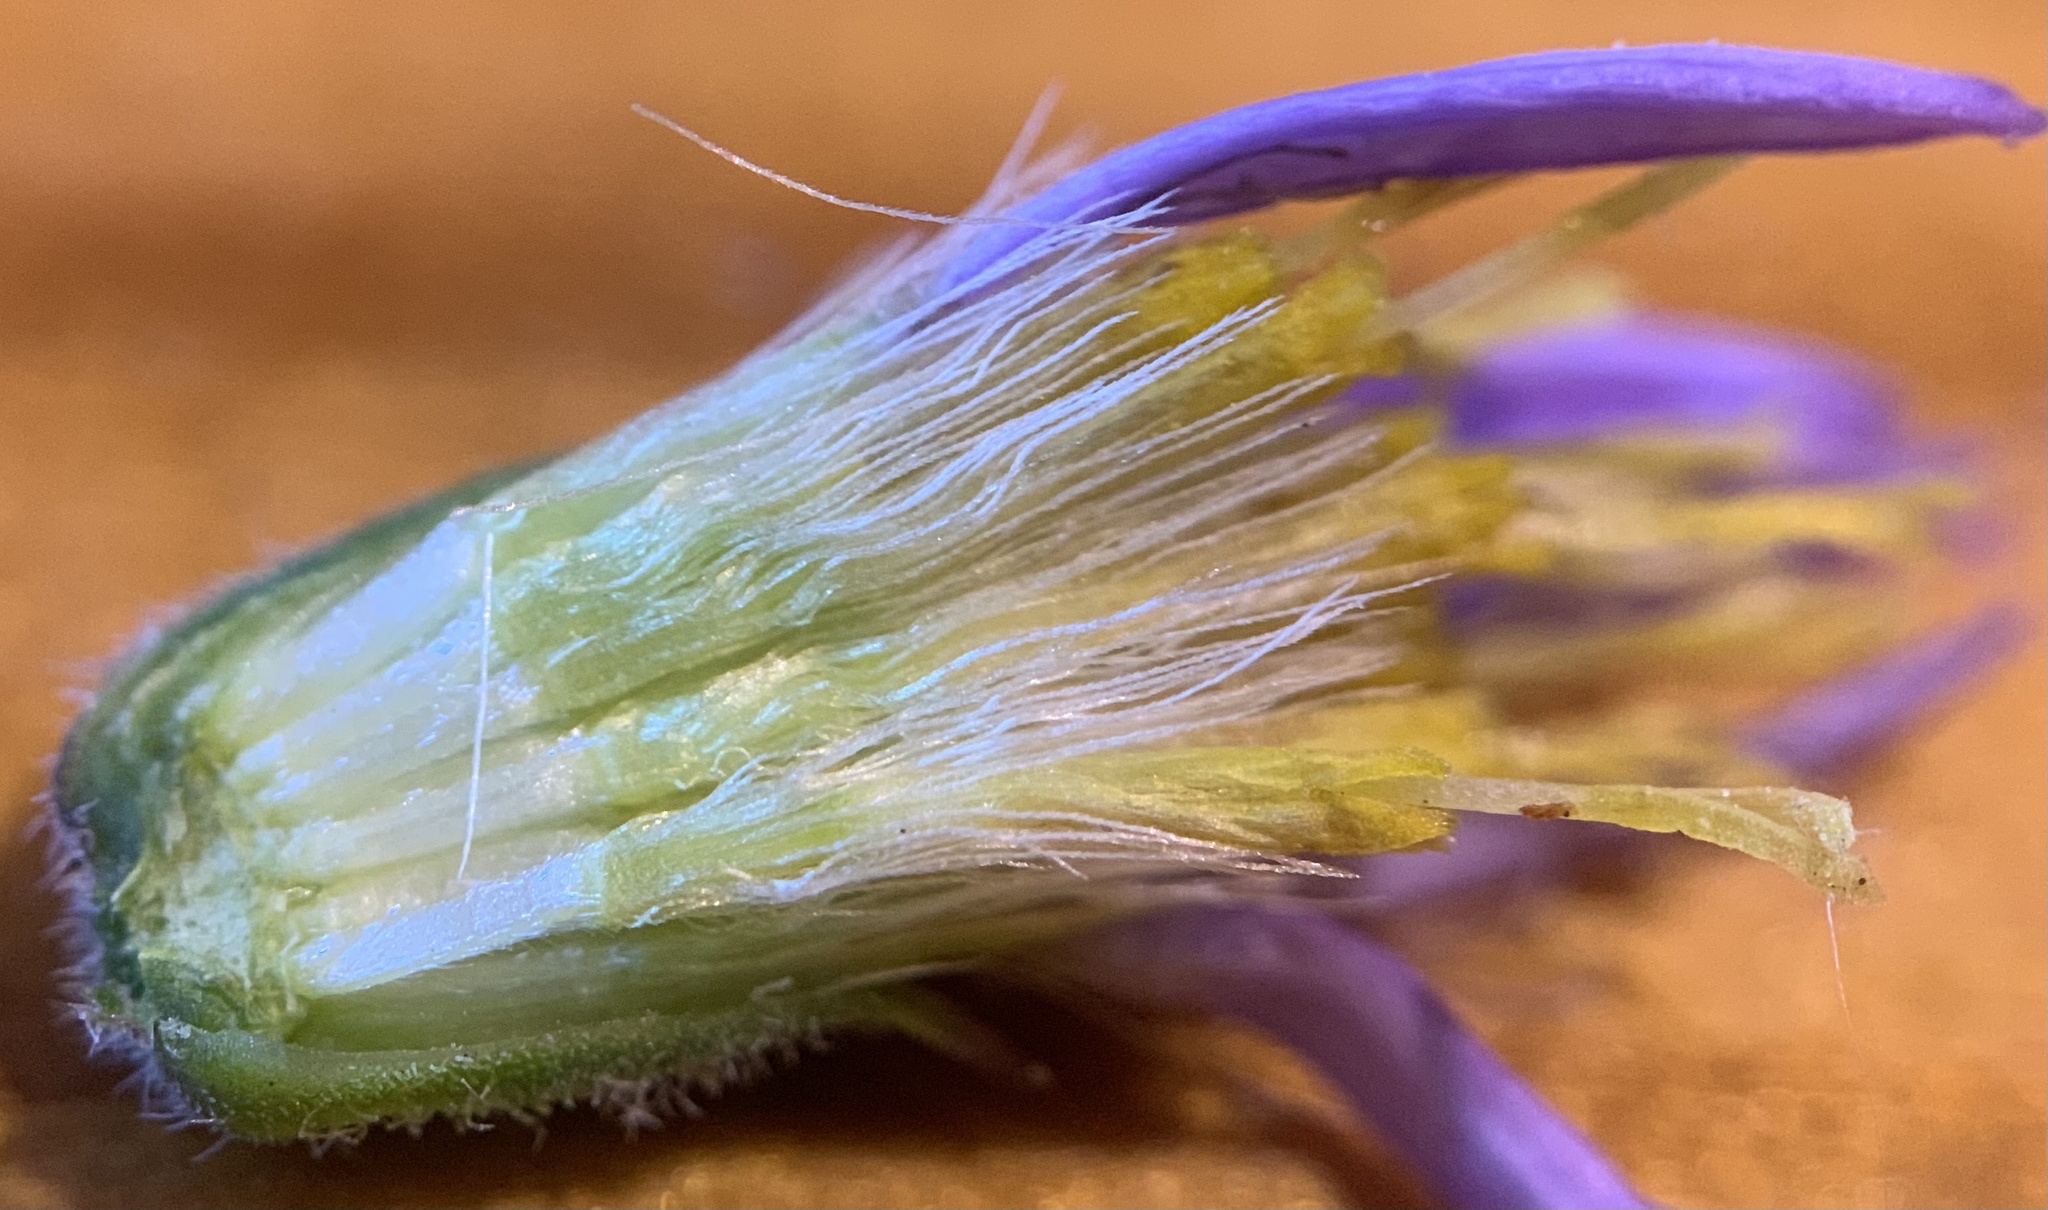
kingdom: Plantae
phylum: Tracheophyta
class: Magnoliopsida
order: Asterales
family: Asteraceae
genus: Erigeron
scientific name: Erigeron asperugineus
